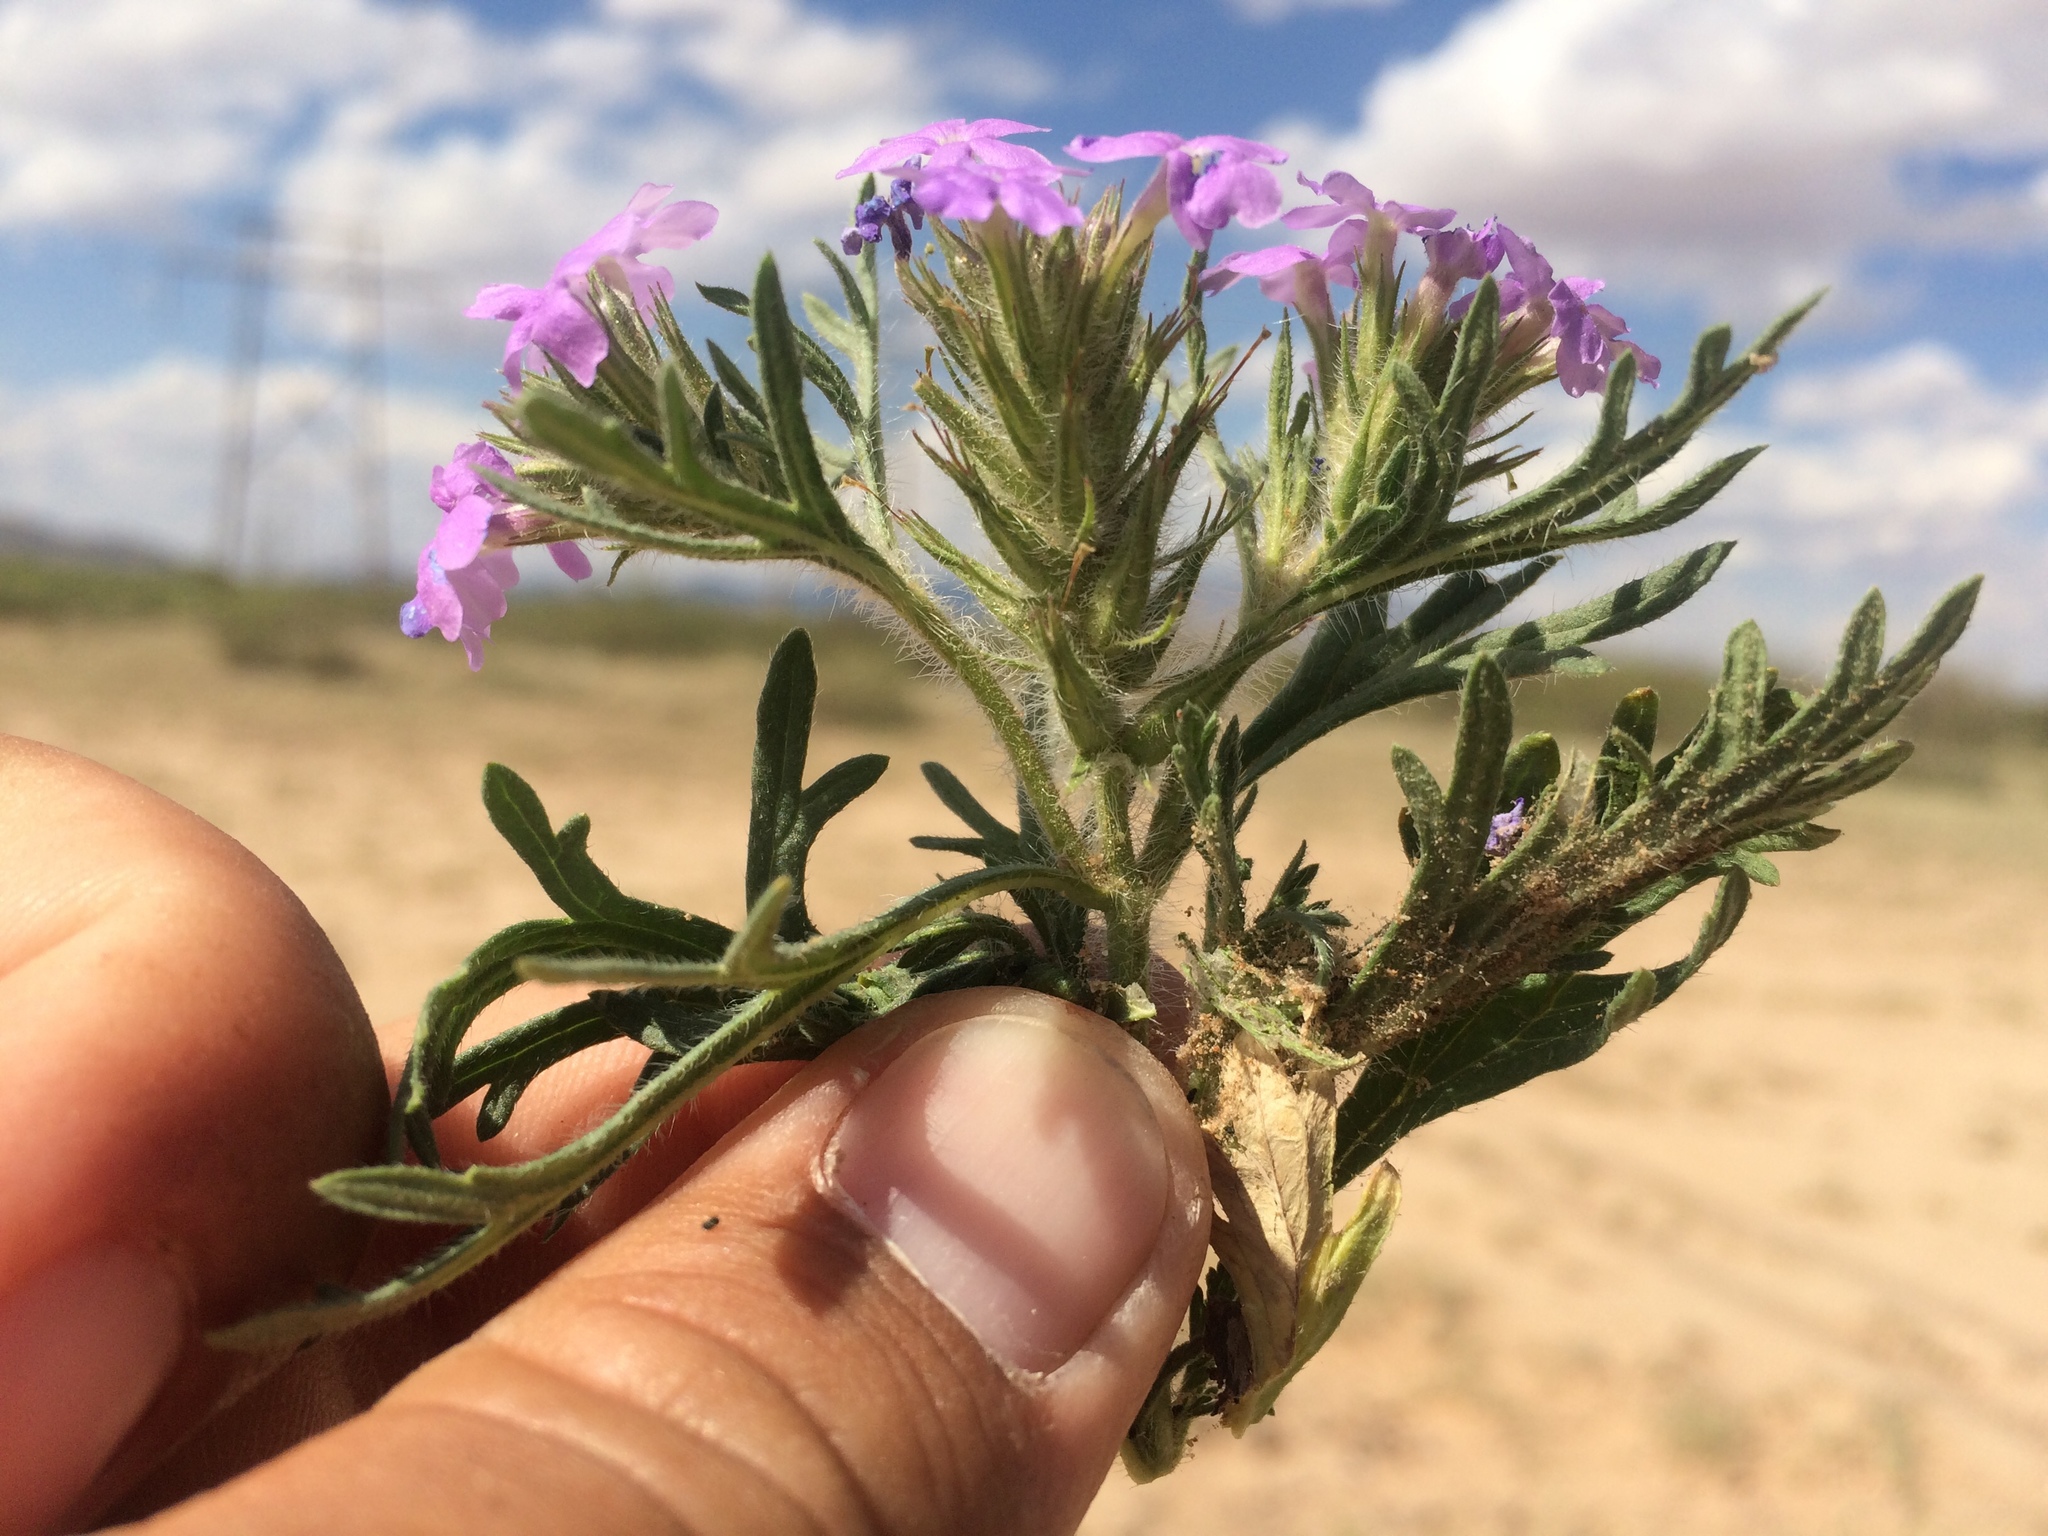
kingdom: Plantae
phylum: Tracheophyta
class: Magnoliopsida
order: Lamiales
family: Verbenaceae
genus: Verbena
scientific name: Verbena bipinnatifida
